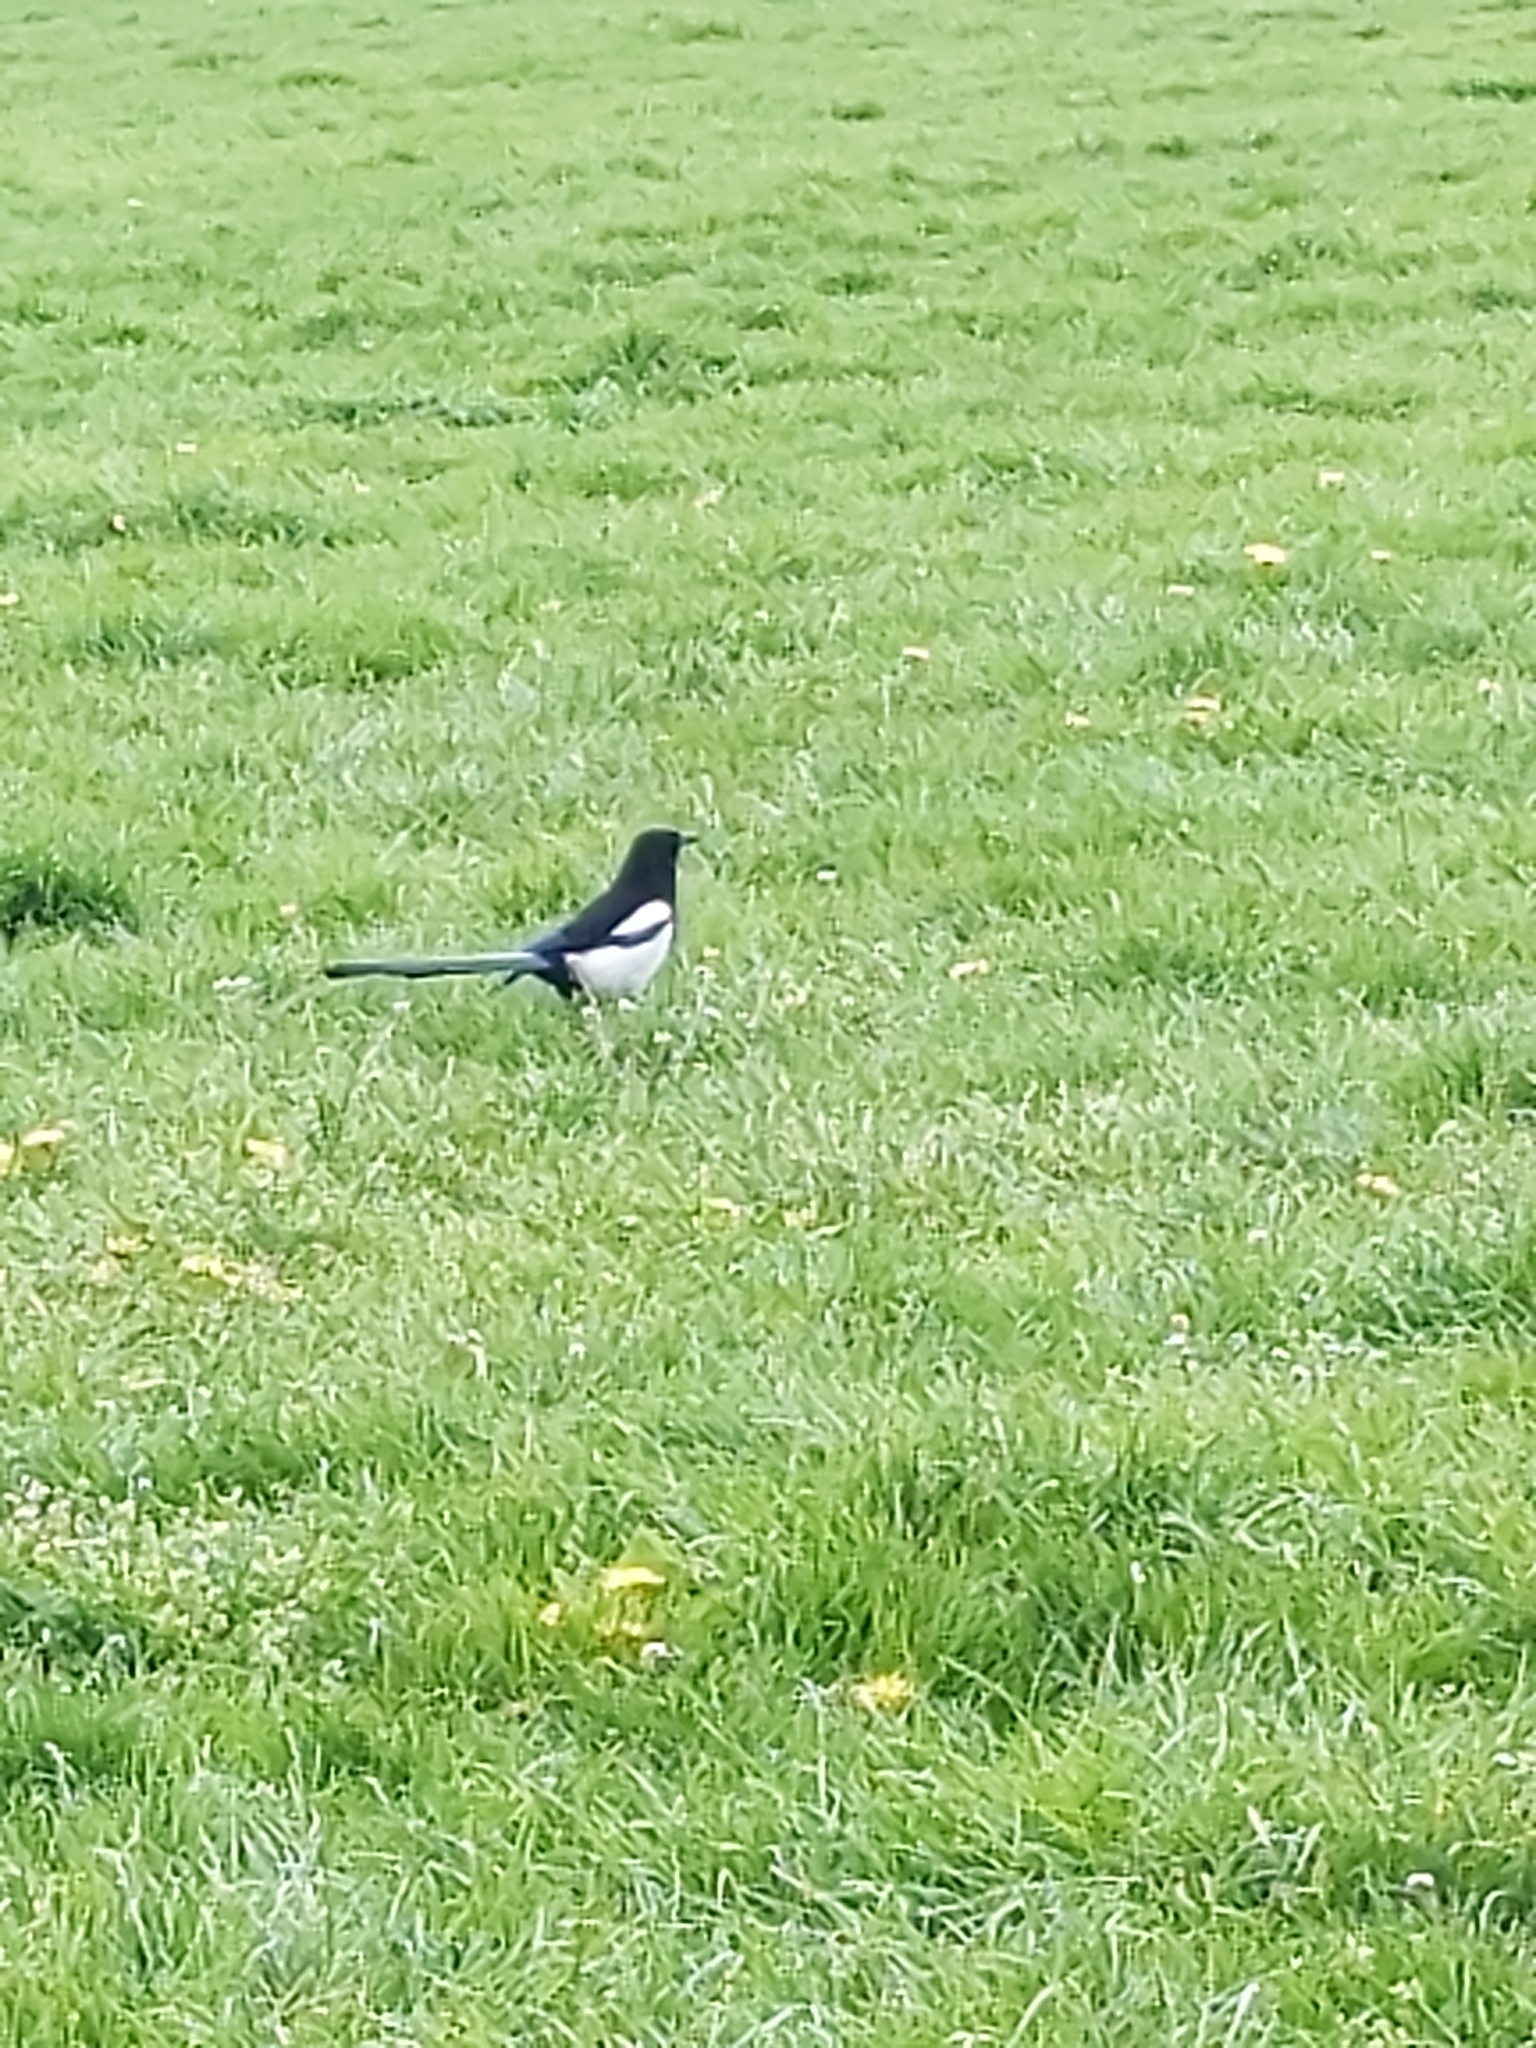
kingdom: Animalia
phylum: Chordata
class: Aves
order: Passeriformes
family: Corvidae
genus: Pica
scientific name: Pica pica
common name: Eurasian magpie
